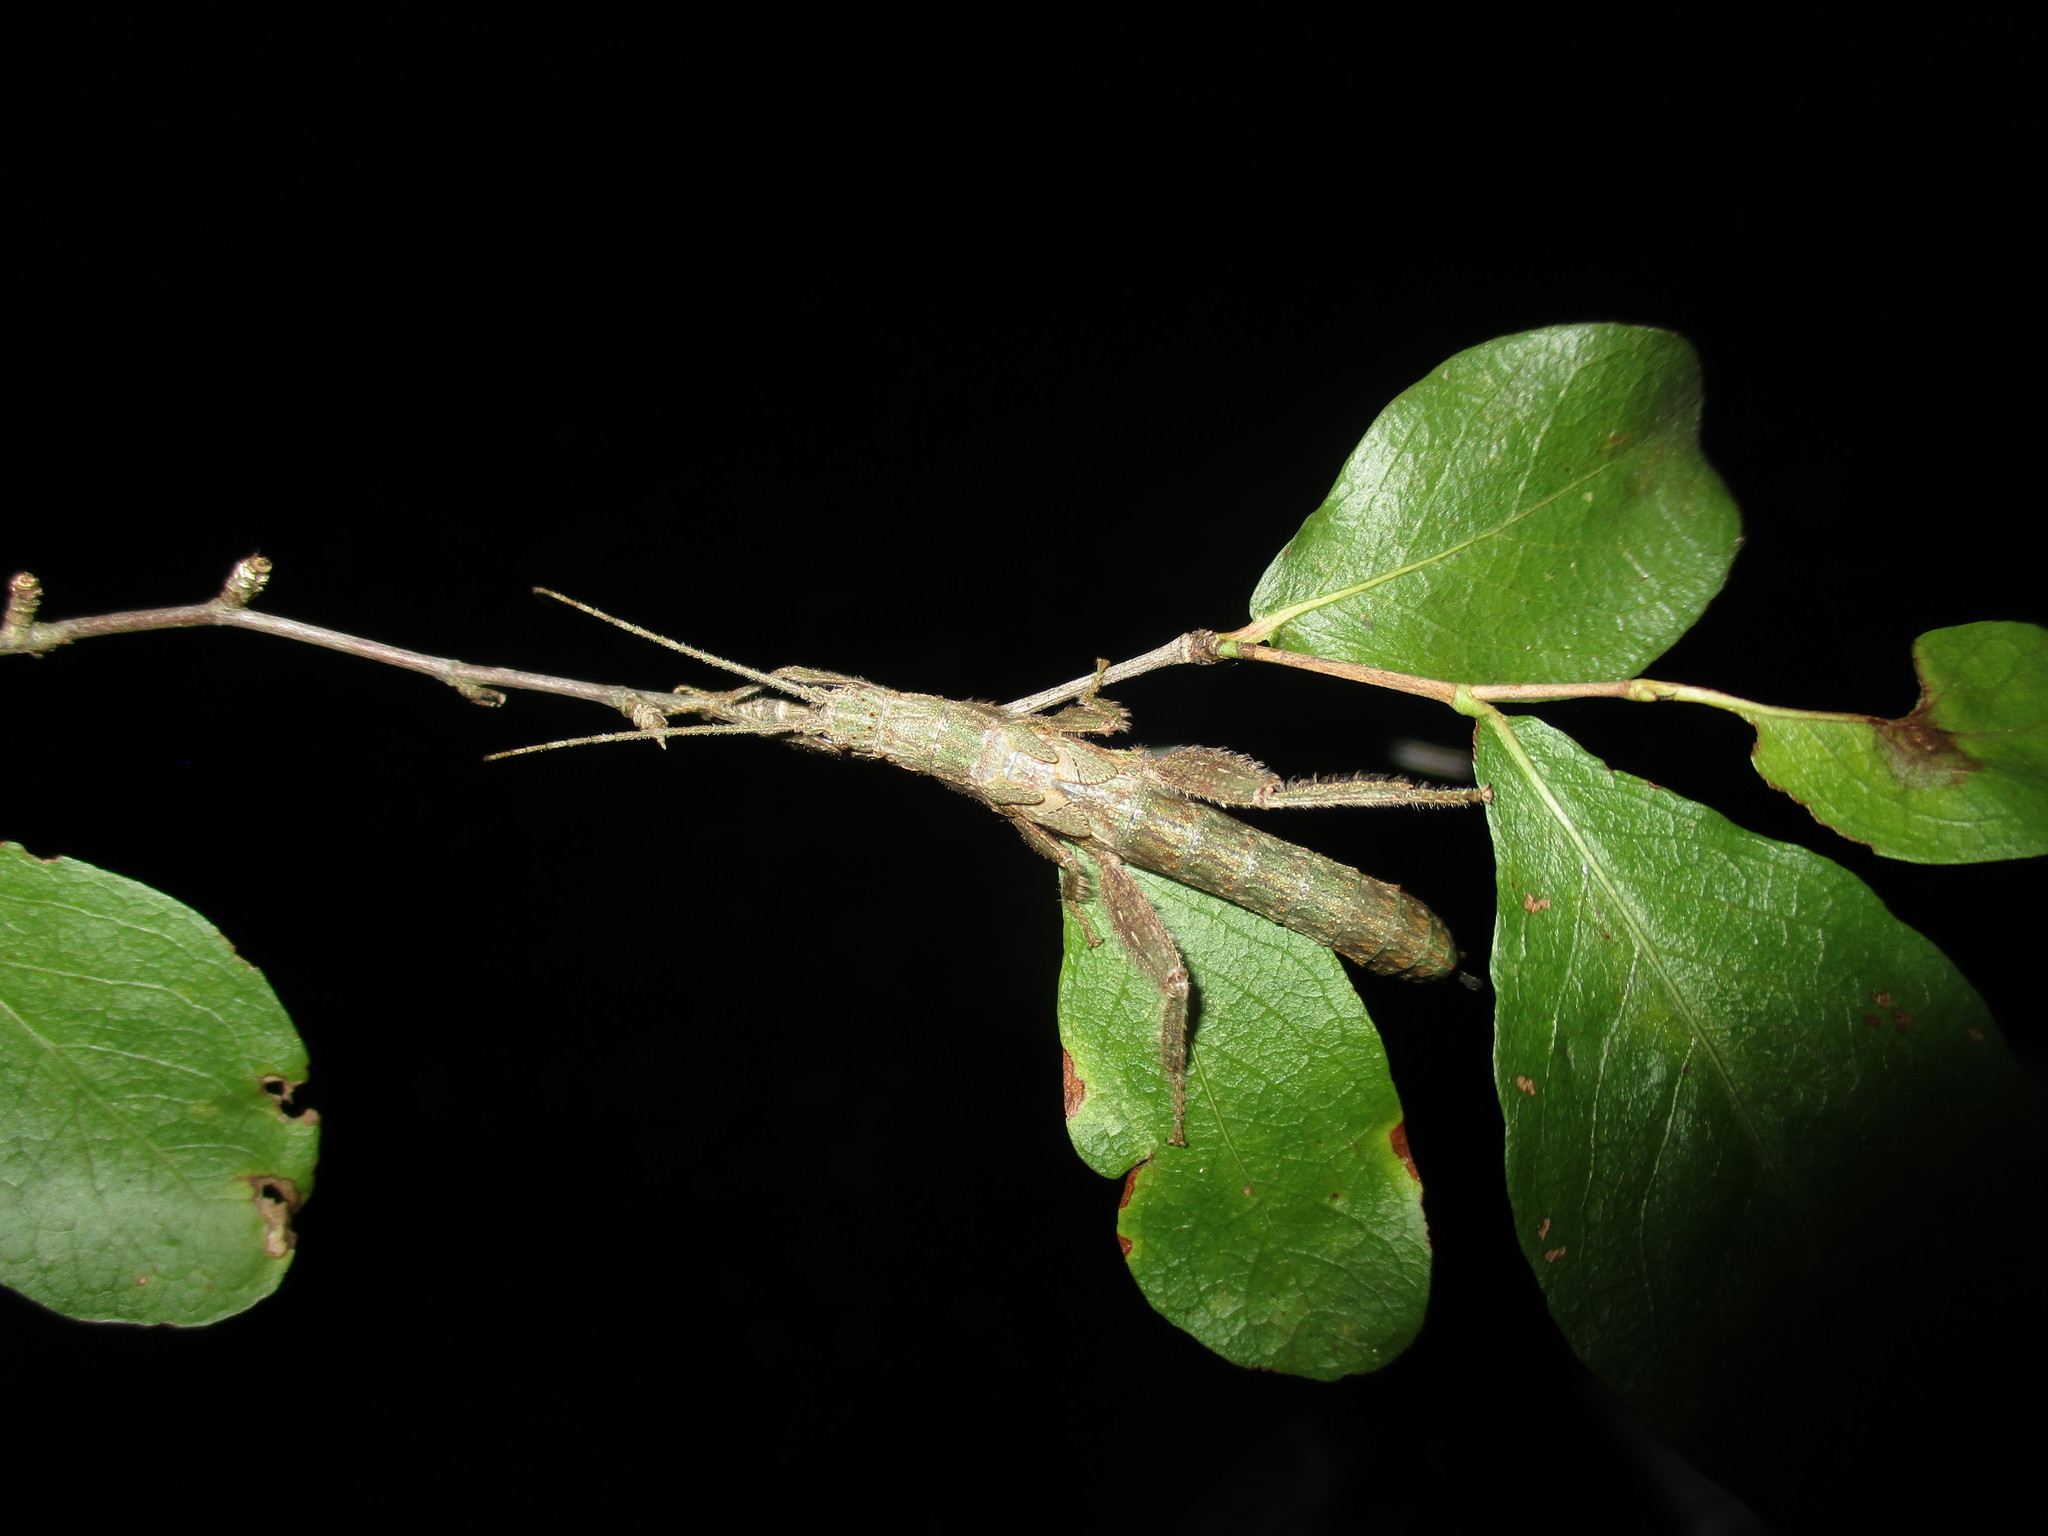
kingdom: Animalia
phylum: Arthropoda
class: Insecta
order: Phasmida
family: Prisopodidae
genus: Prisopus
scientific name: Prisopus berosus
